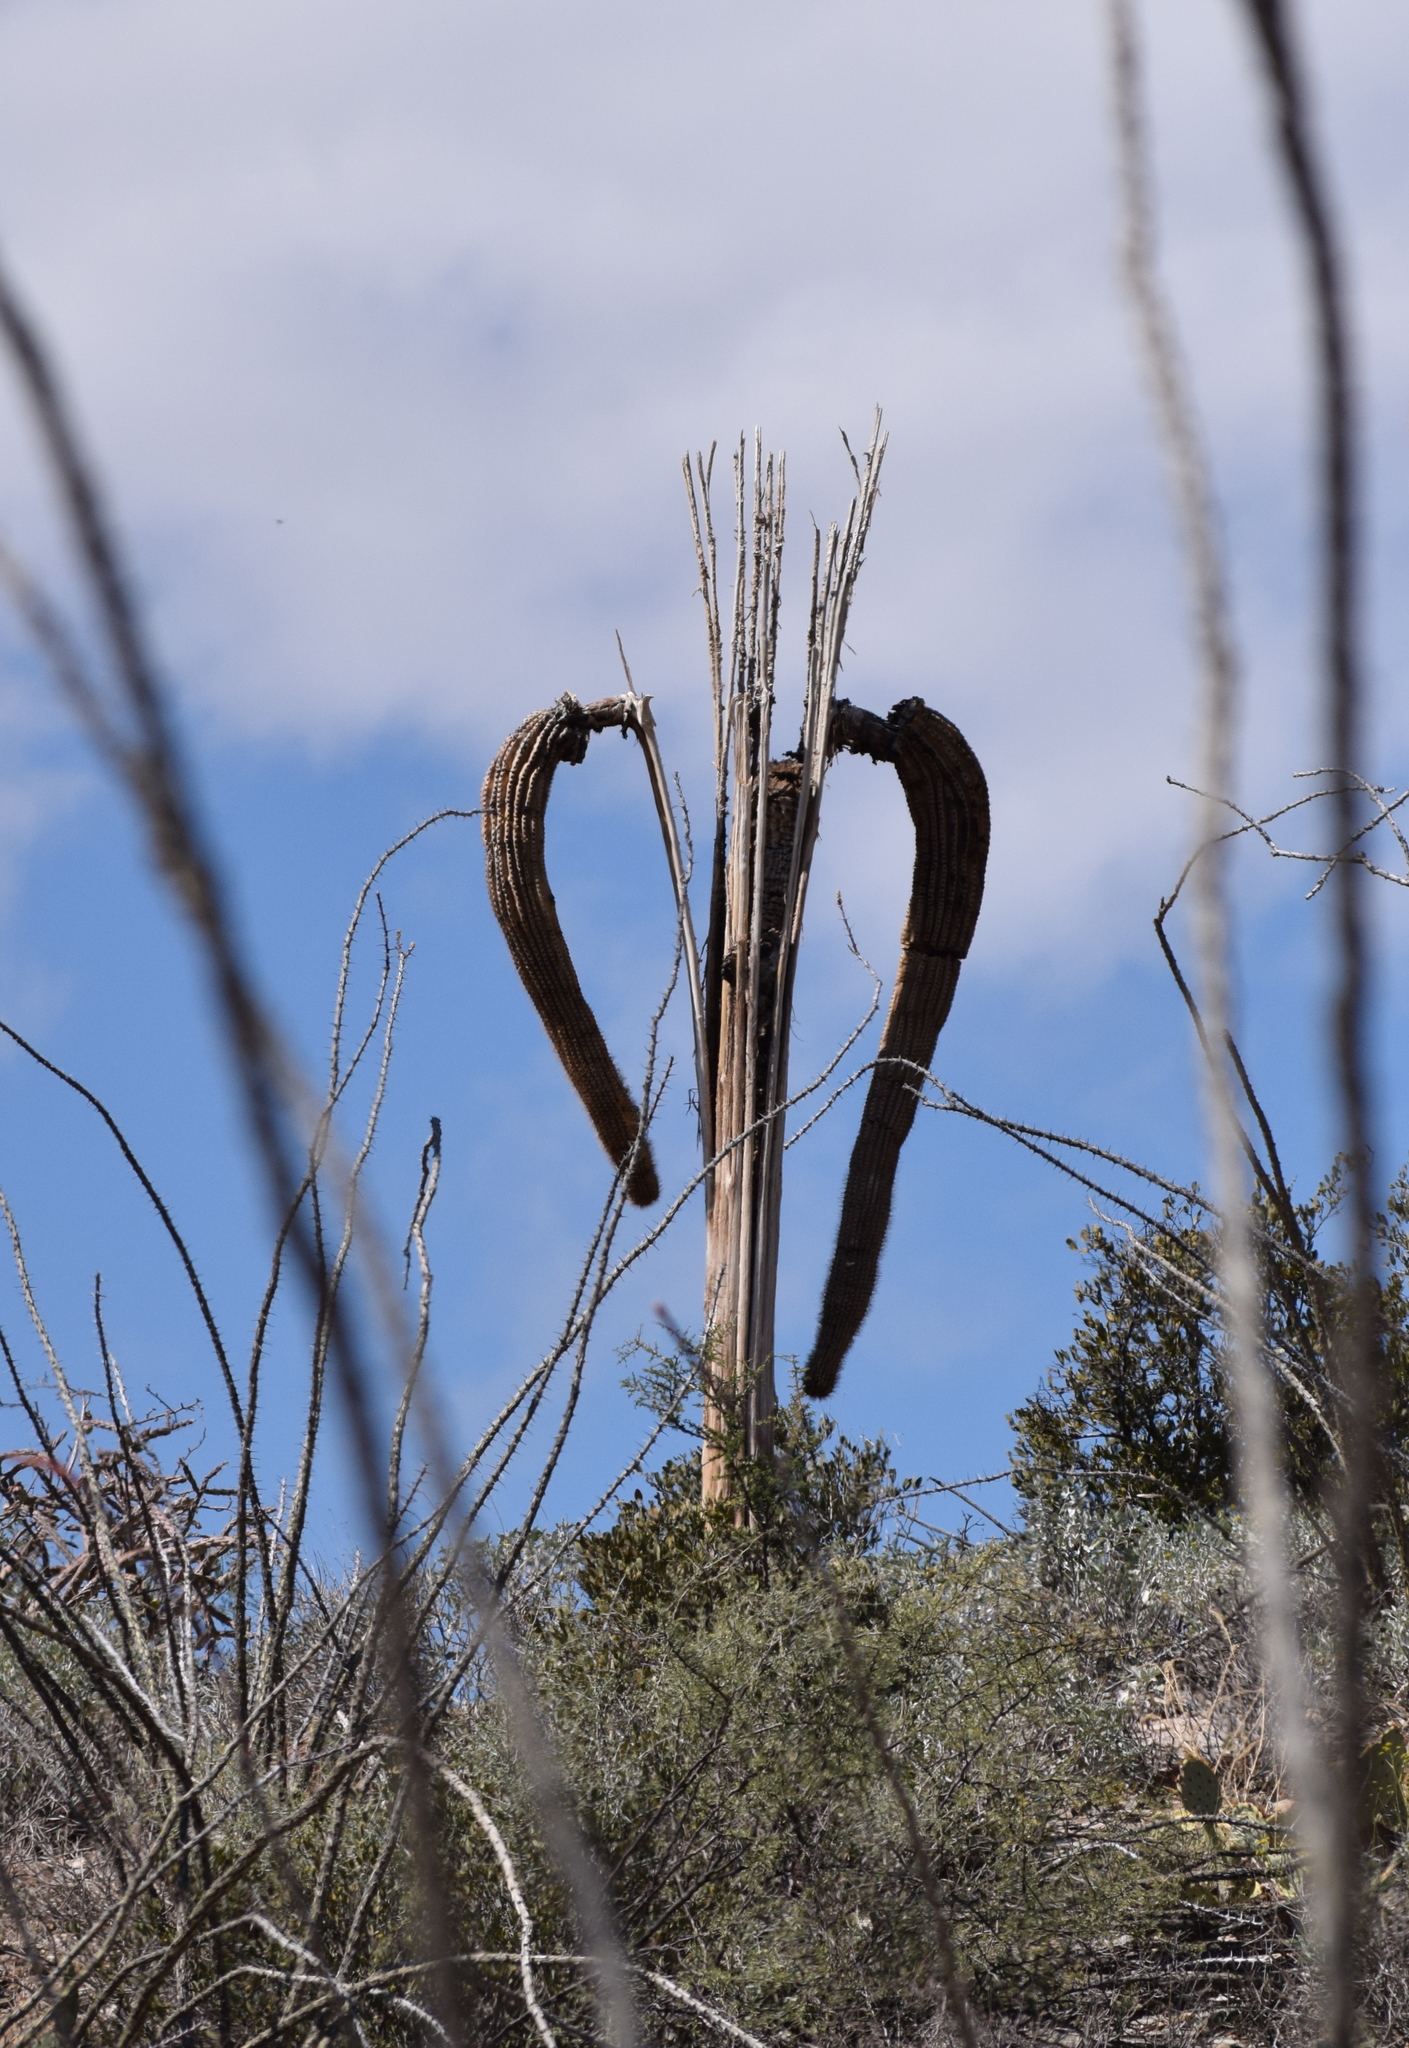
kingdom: Plantae
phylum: Tracheophyta
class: Magnoliopsida
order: Caryophyllales
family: Cactaceae
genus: Carnegiea
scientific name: Carnegiea gigantea
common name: Saguaro
